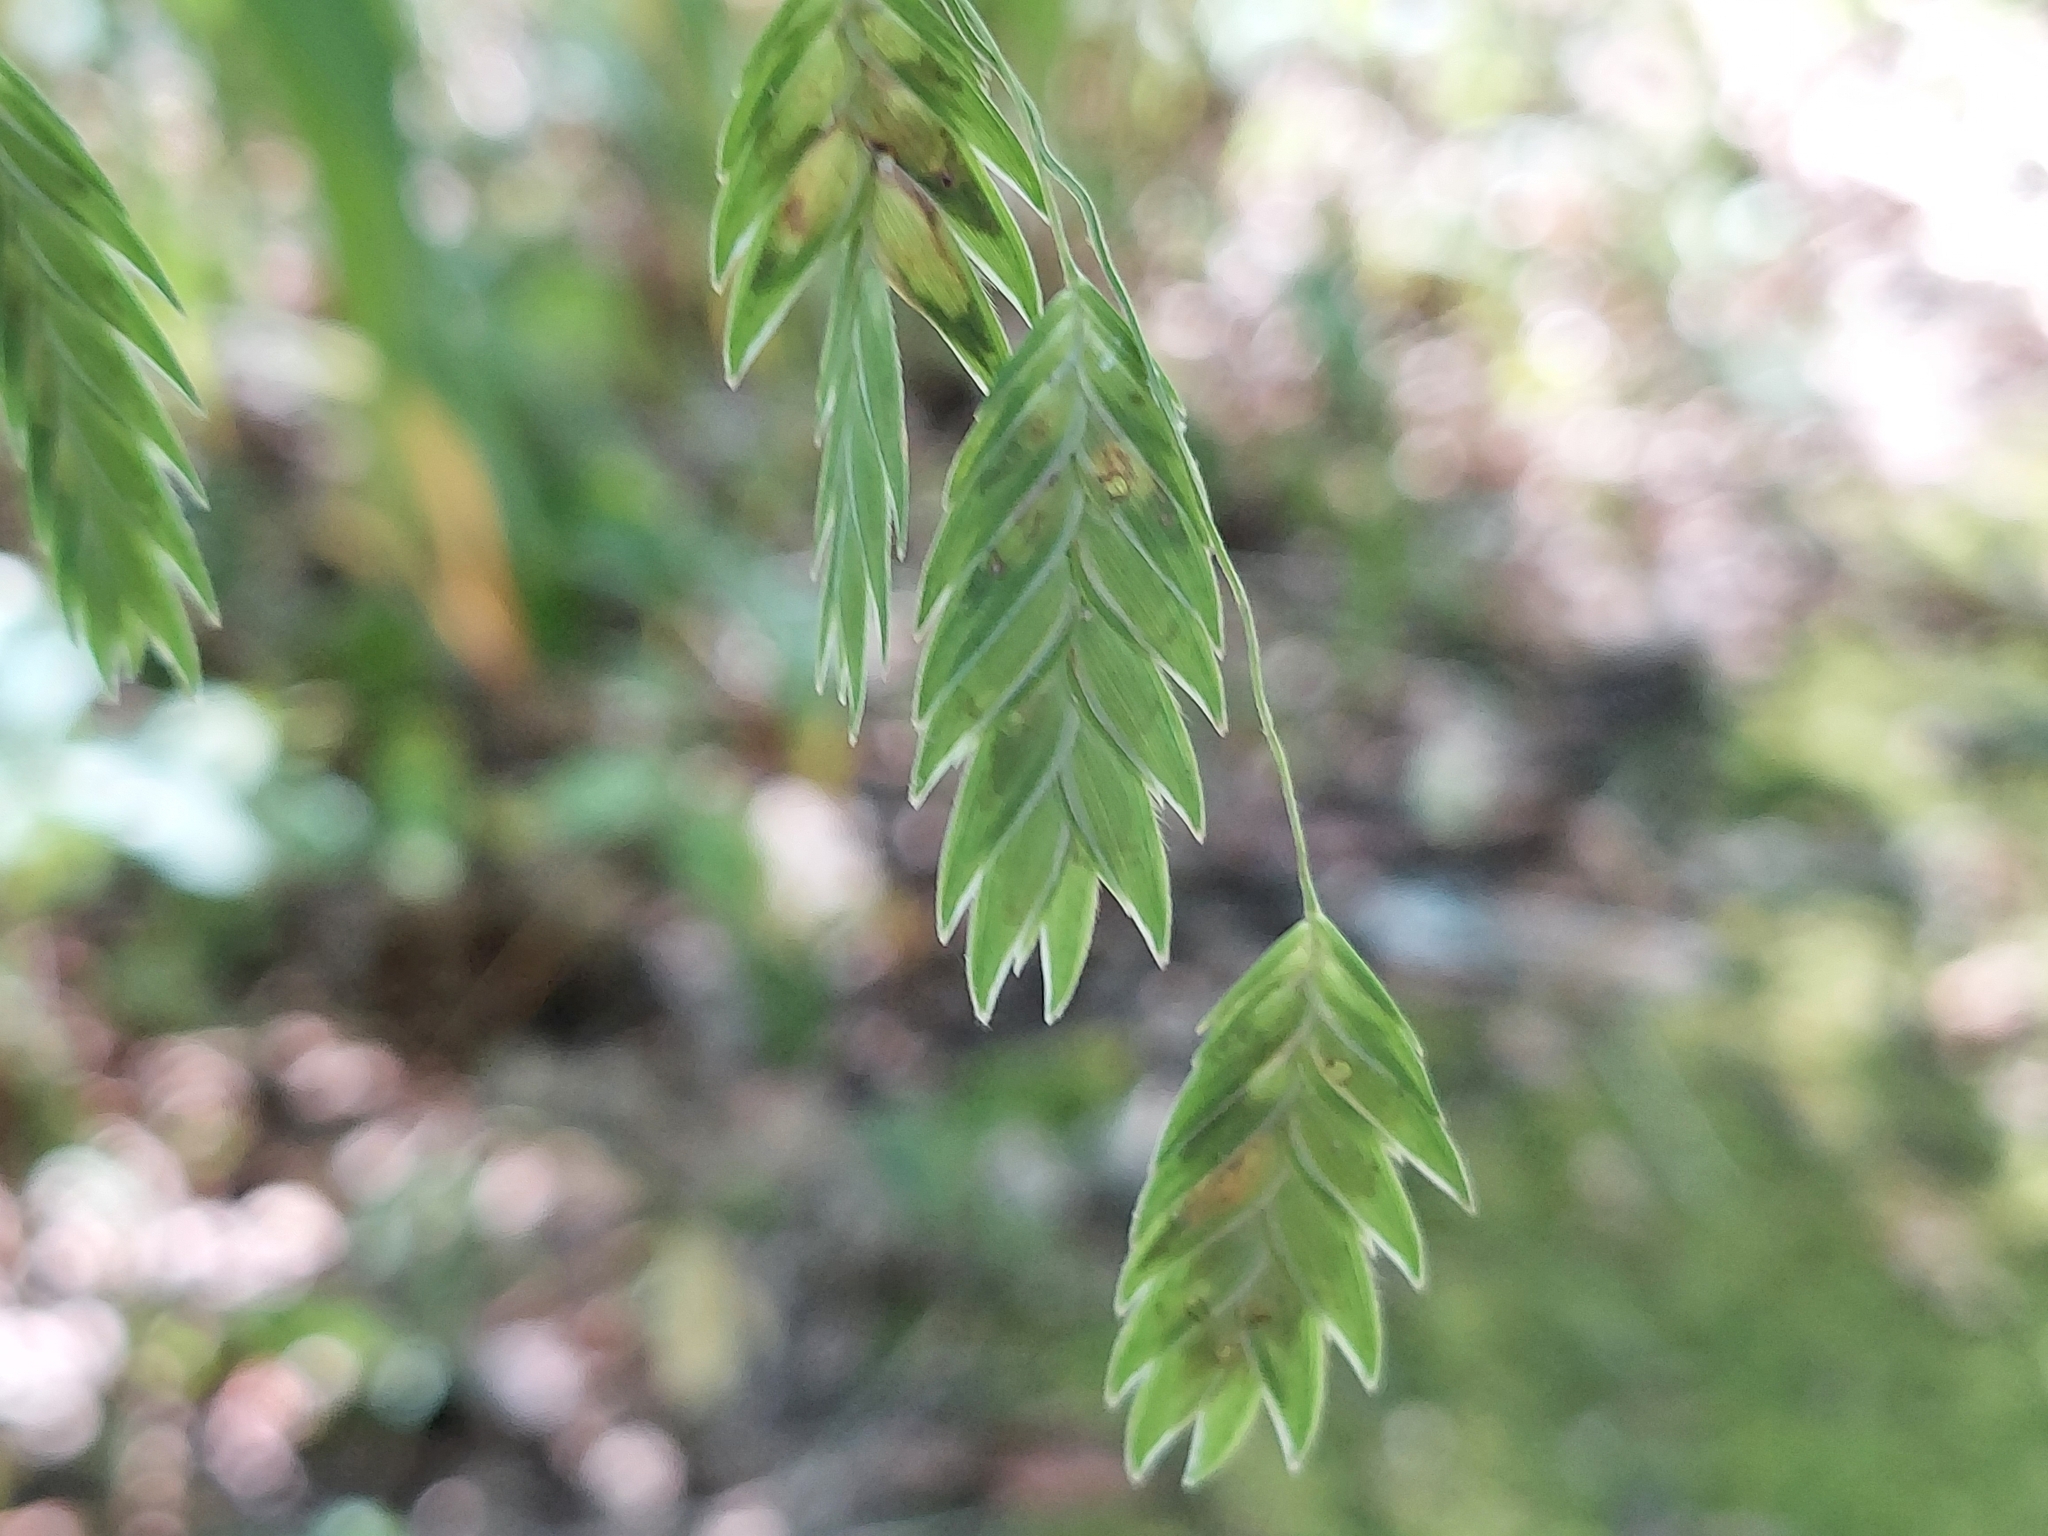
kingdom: Plantae
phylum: Tracheophyta
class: Liliopsida
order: Poales
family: Poaceae
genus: Chasmanthium
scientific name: Chasmanthium latifolium
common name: Broad-leaved chasmanthium
